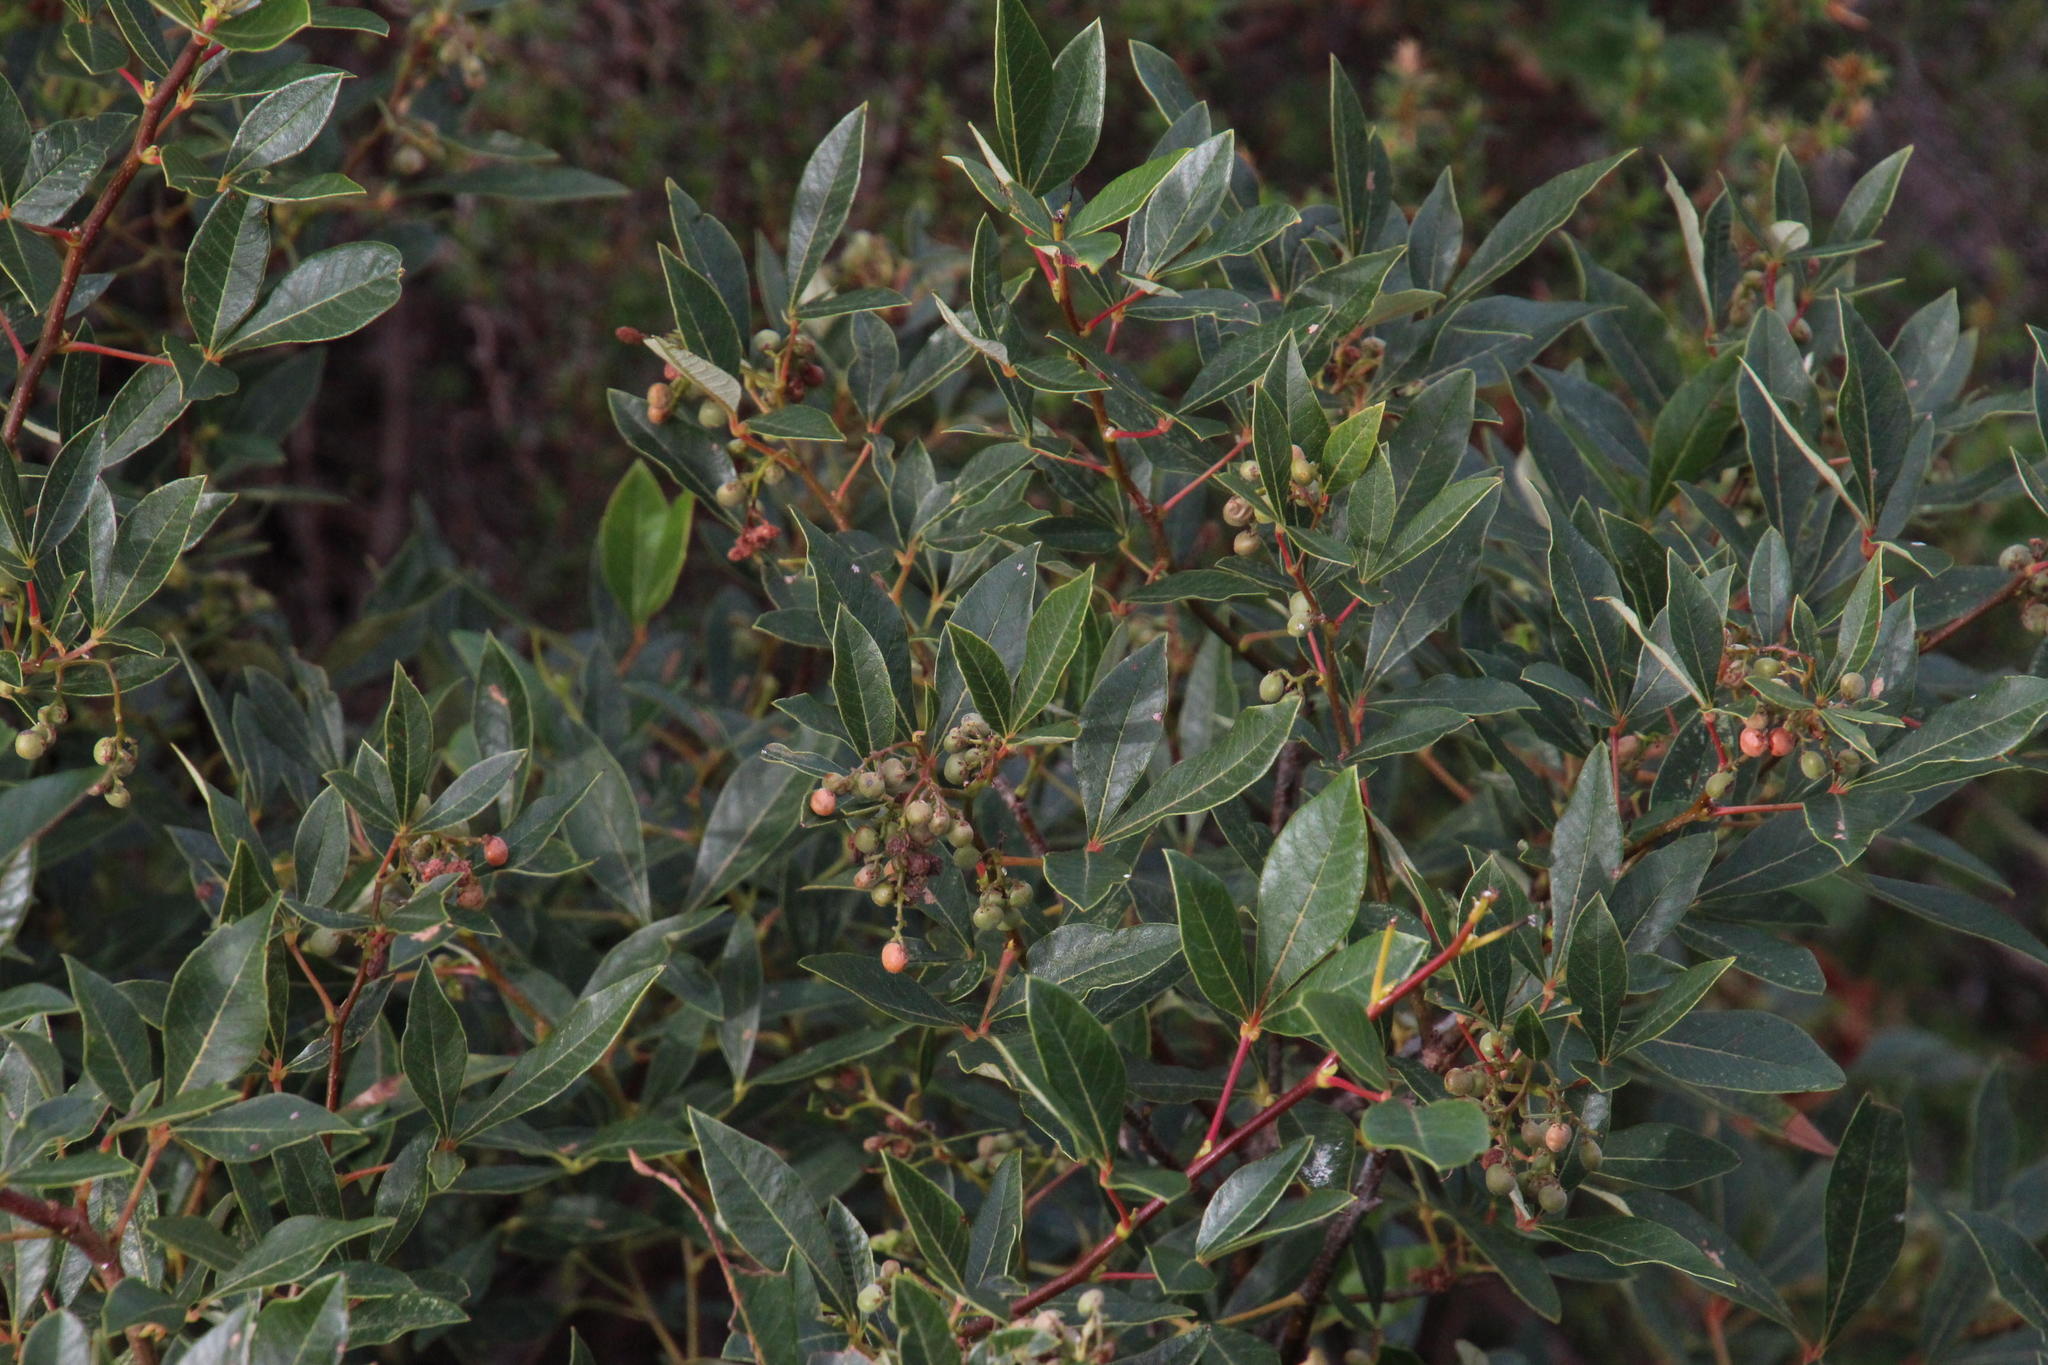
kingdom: Plantae
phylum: Tracheophyta
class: Magnoliopsida
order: Sapindales
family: Anacardiaceae
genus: Searsia
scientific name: Searsia tomentosa
